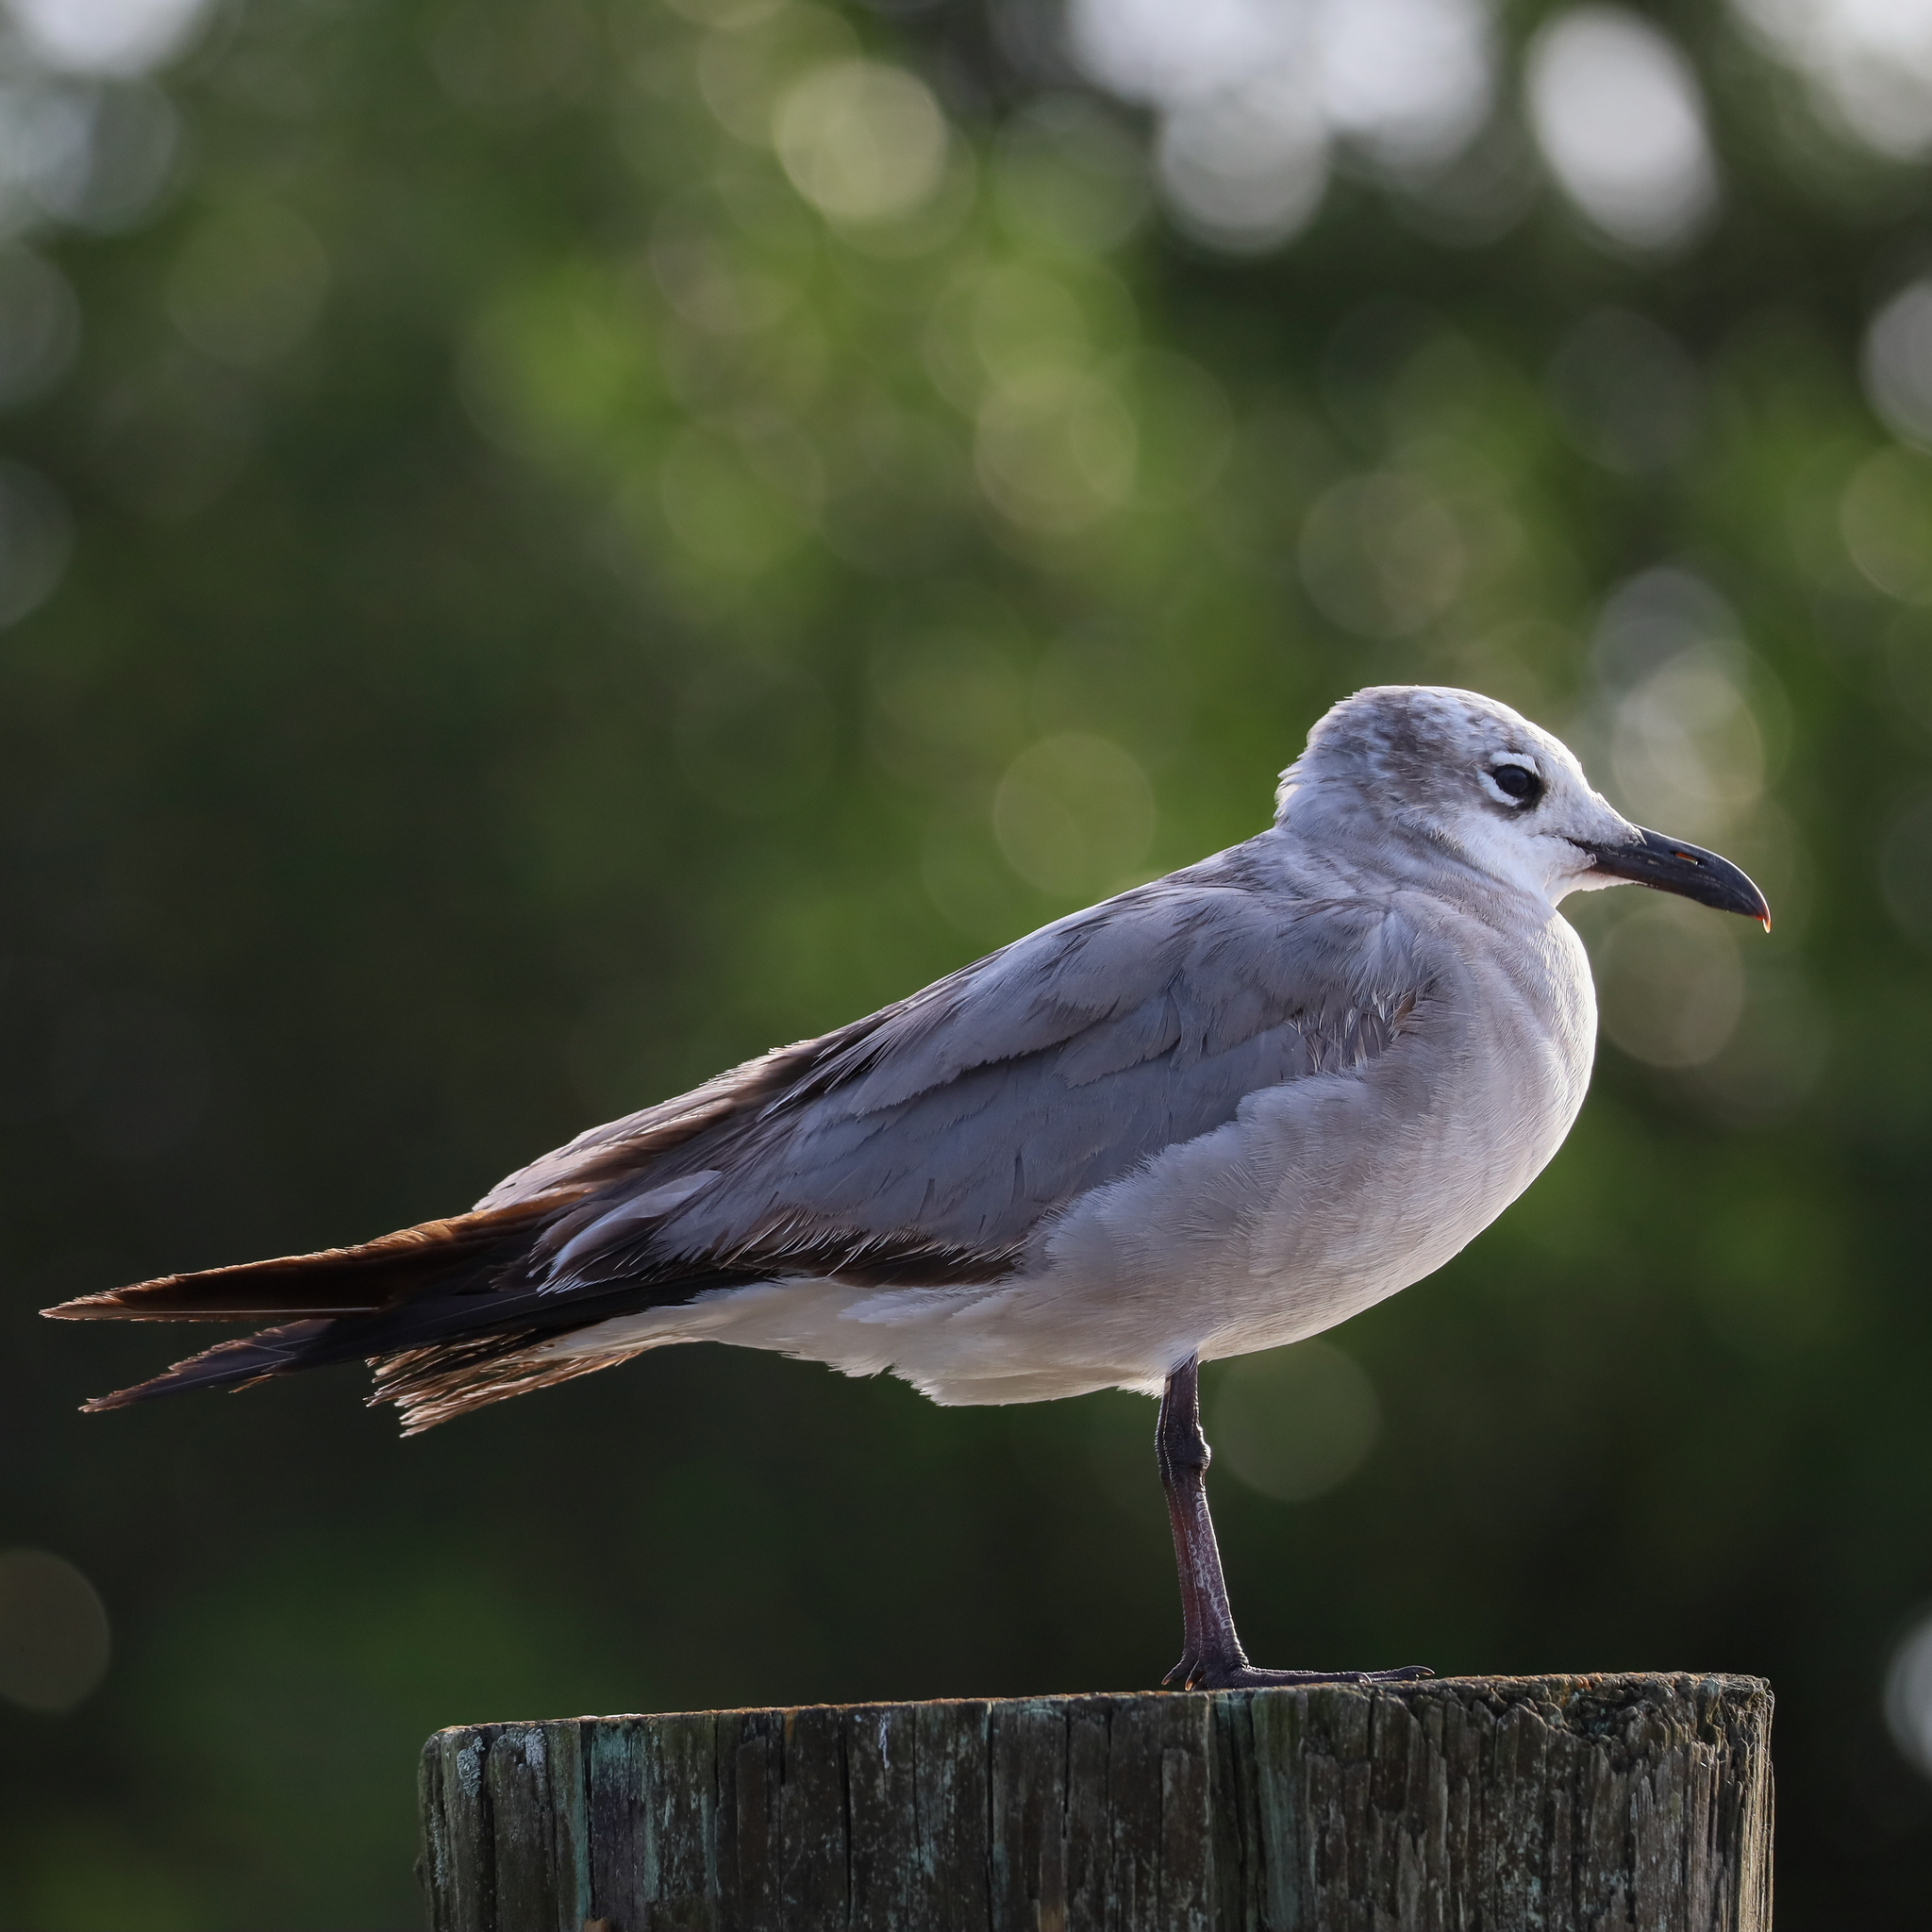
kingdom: Animalia
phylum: Chordata
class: Aves
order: Charadriiformes
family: Laridae
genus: Leucophaeus
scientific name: Leucophaeus atricilla
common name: Laughing gull
